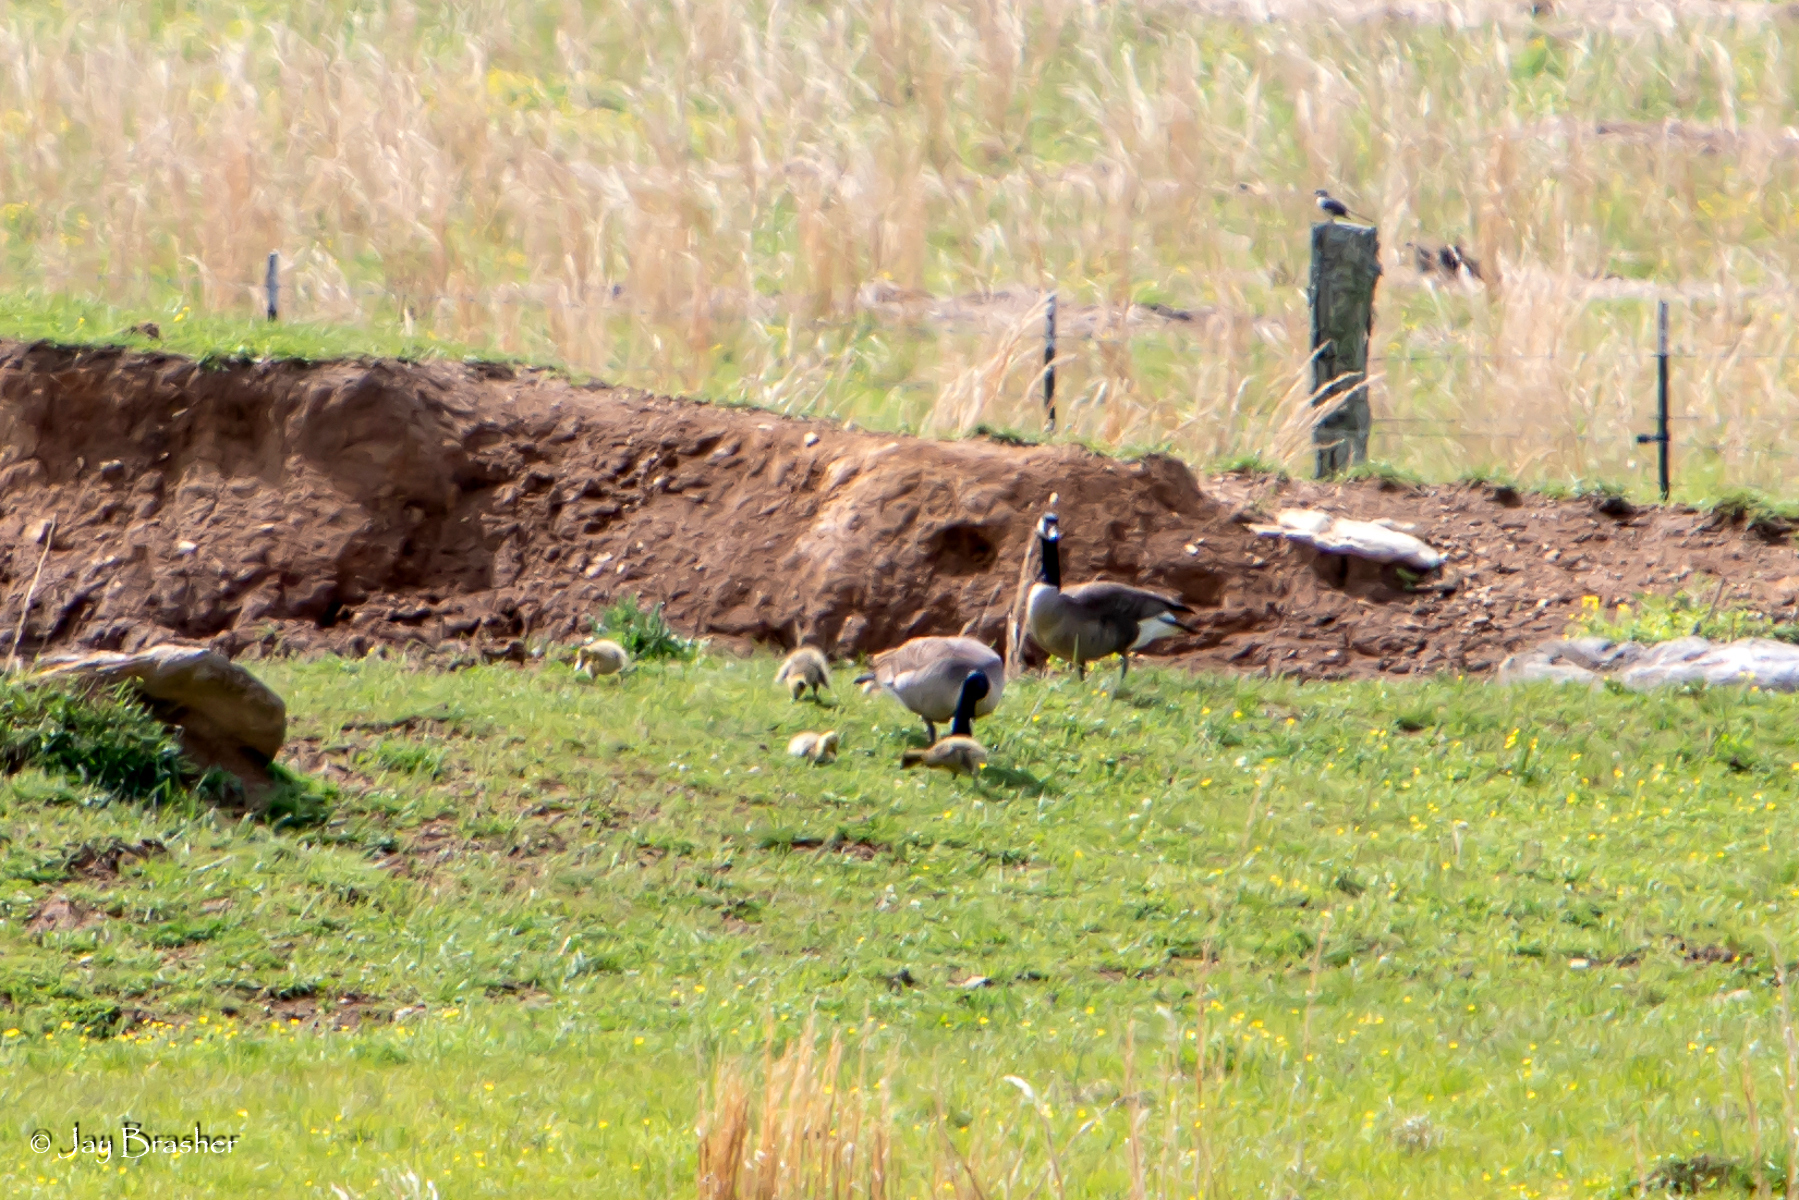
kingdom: Animalia
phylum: Chordata
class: Aves
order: Anseriformes
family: Anatidae
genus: Branta
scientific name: Branta canadensis
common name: Canada goose
